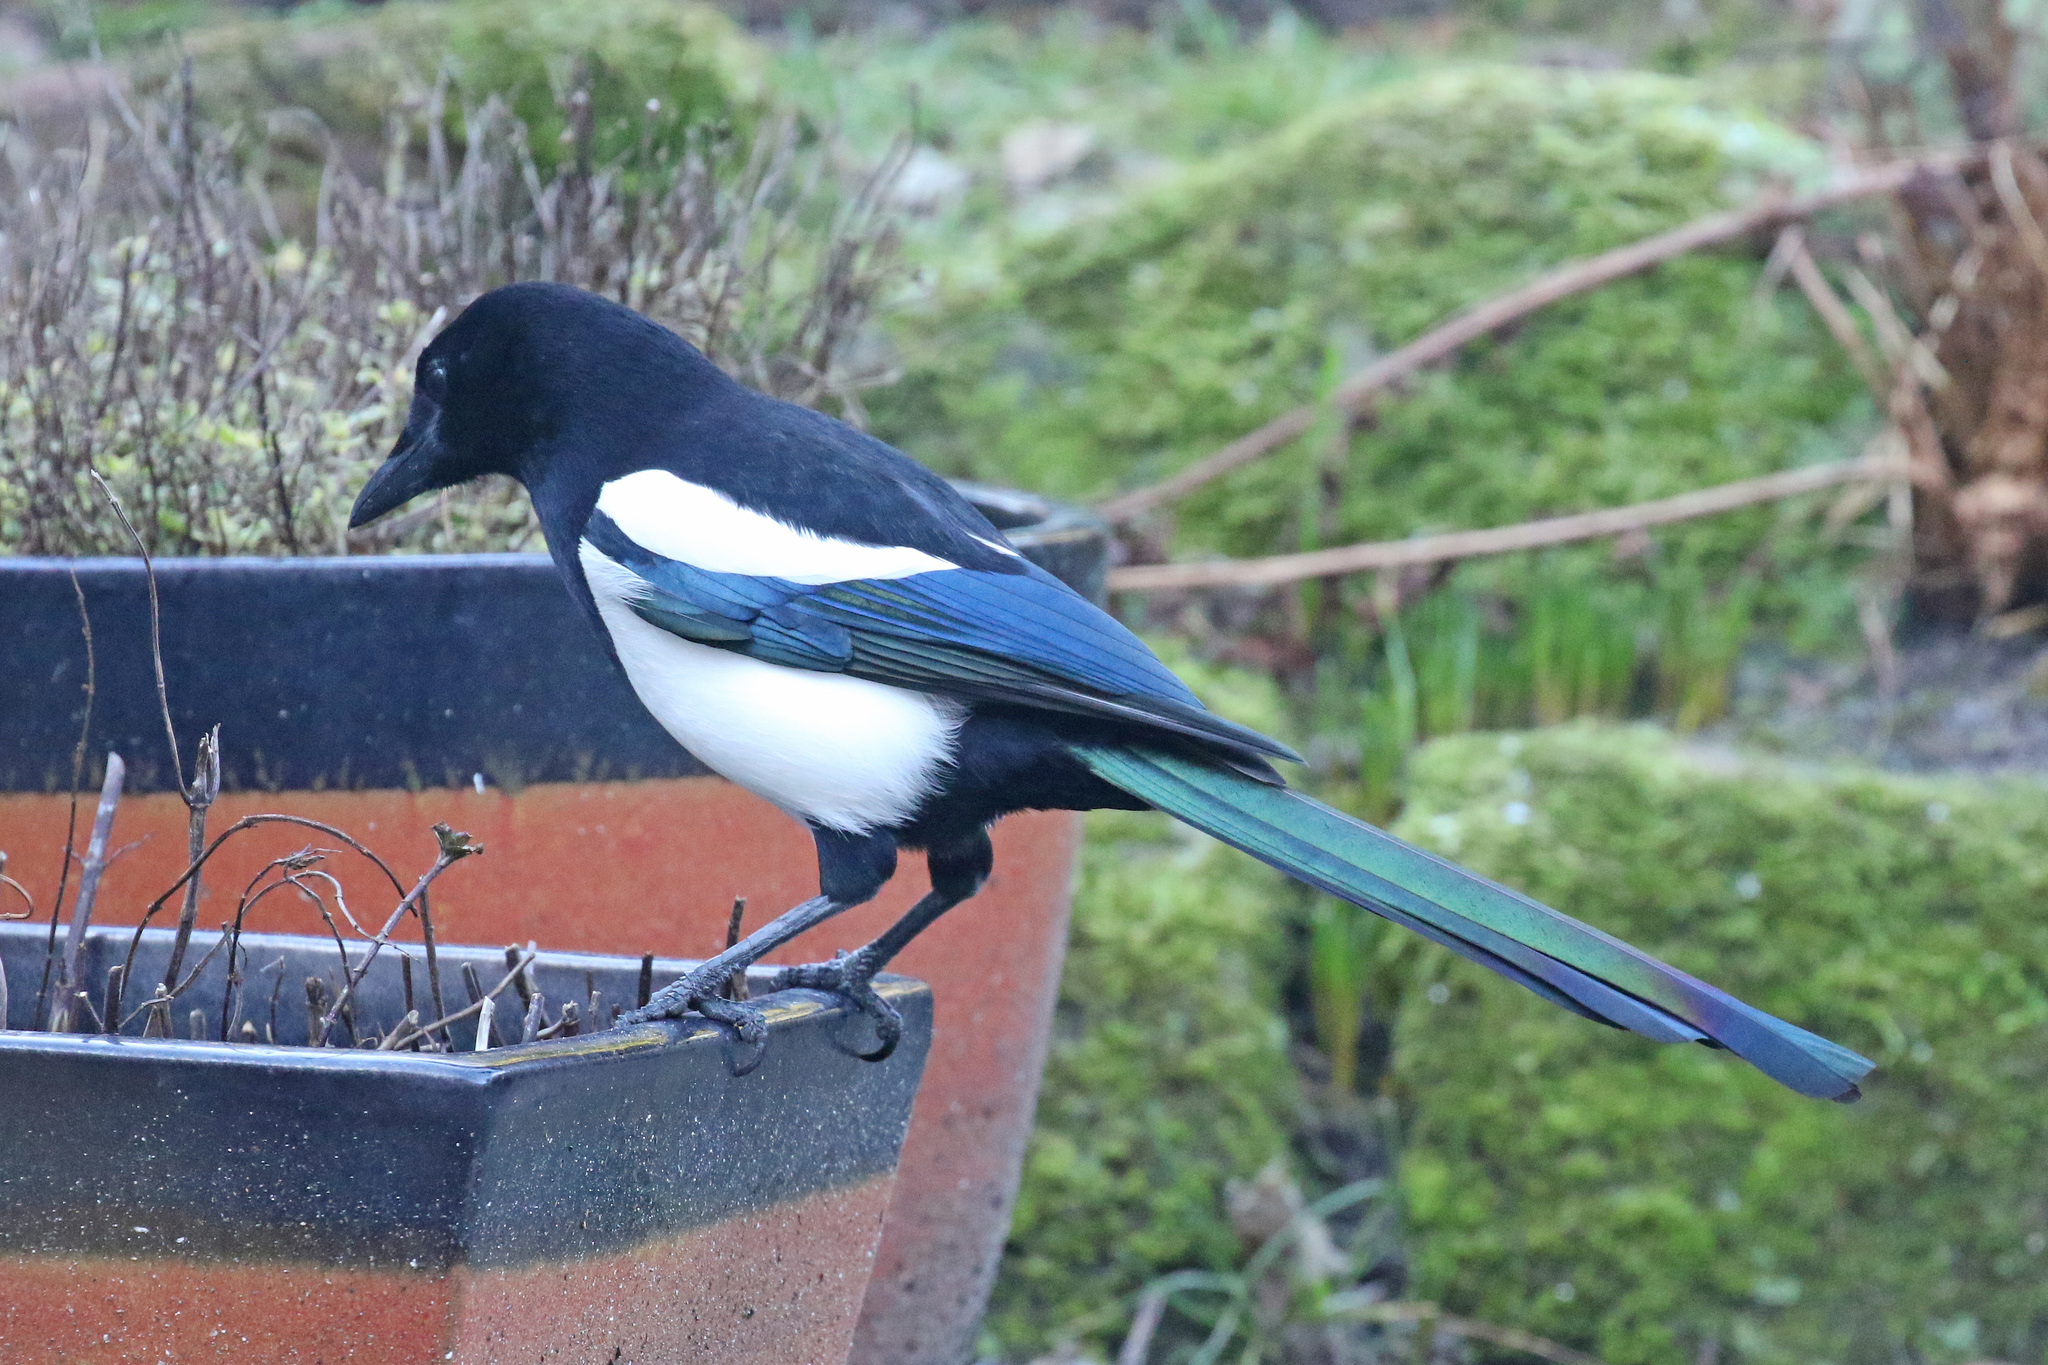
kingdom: Animalia
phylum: Chordata
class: Aves
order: Passeriformes
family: Corvidae
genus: Pica
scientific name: Pica pica
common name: Eurasian magpie
